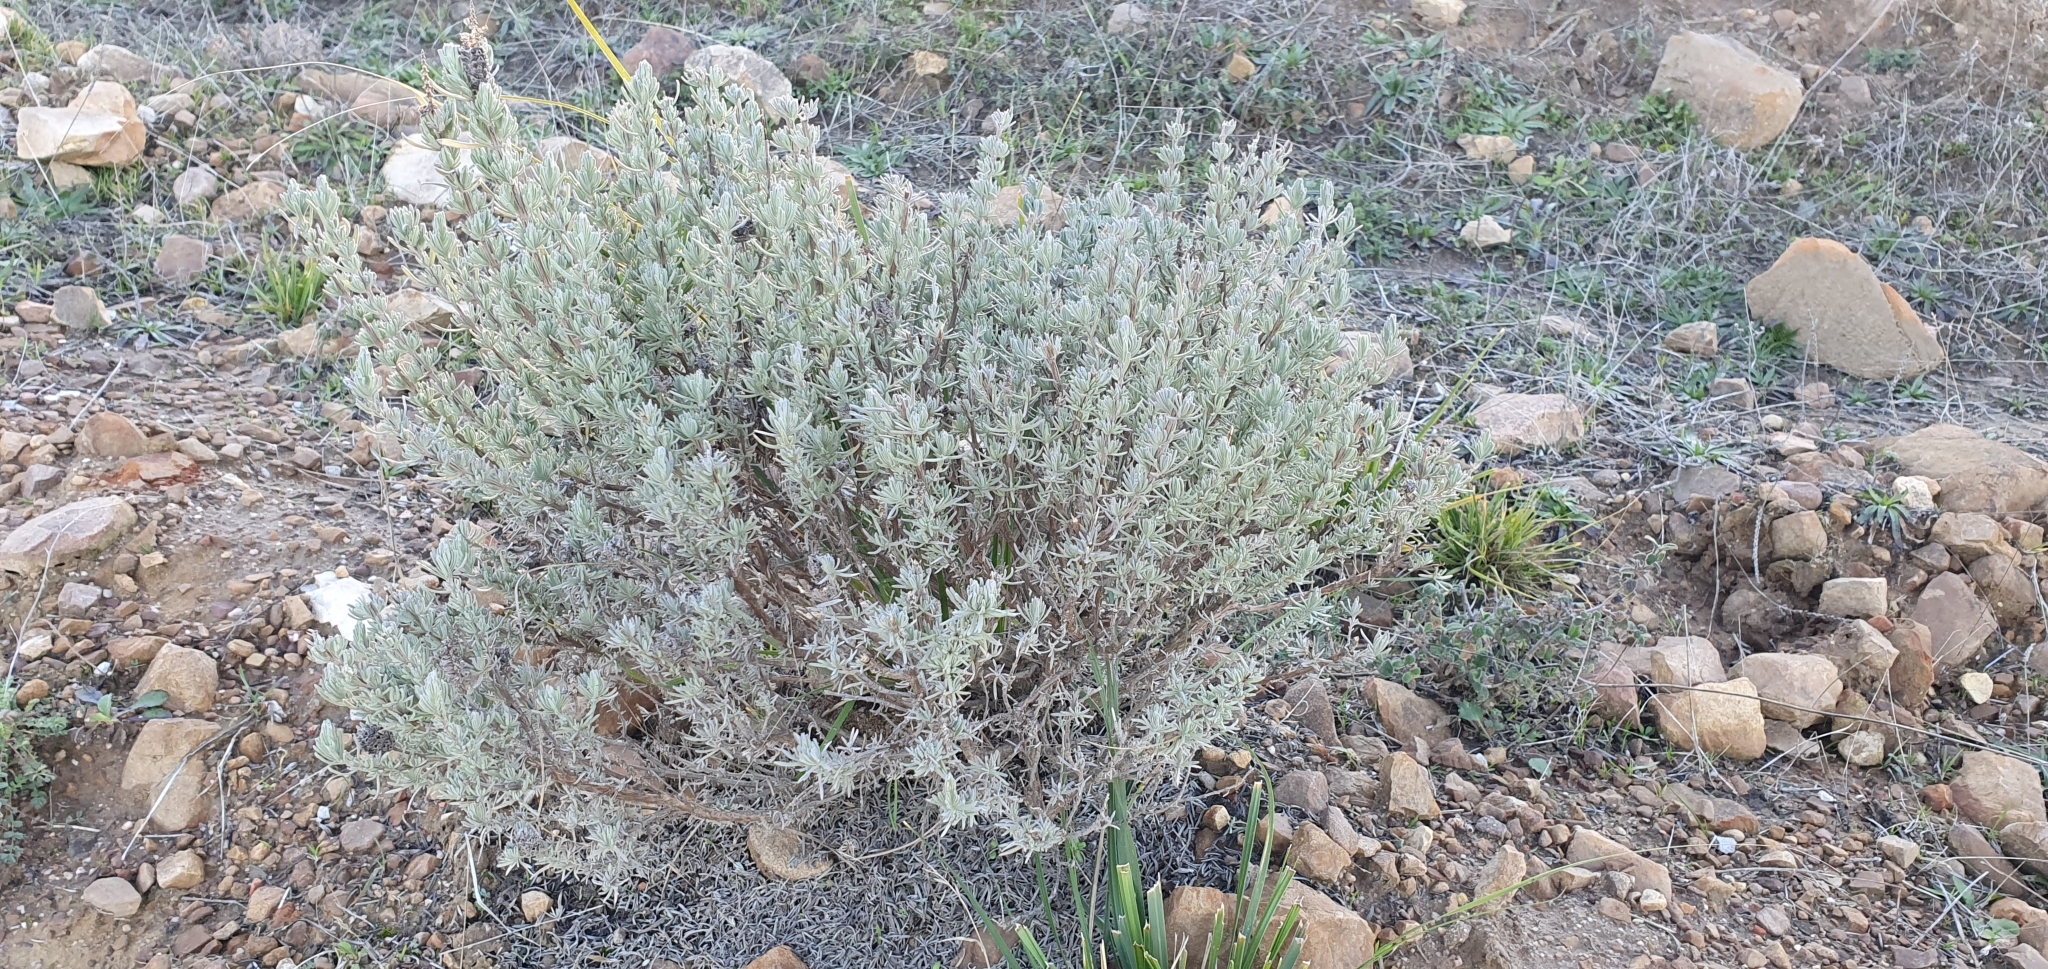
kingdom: Plantae
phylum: Tracheophyta
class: Magnoliopsida
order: Lamiales
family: Lamiaceae
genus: Lavandula
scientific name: Lavandula stoechas
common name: French lavender
